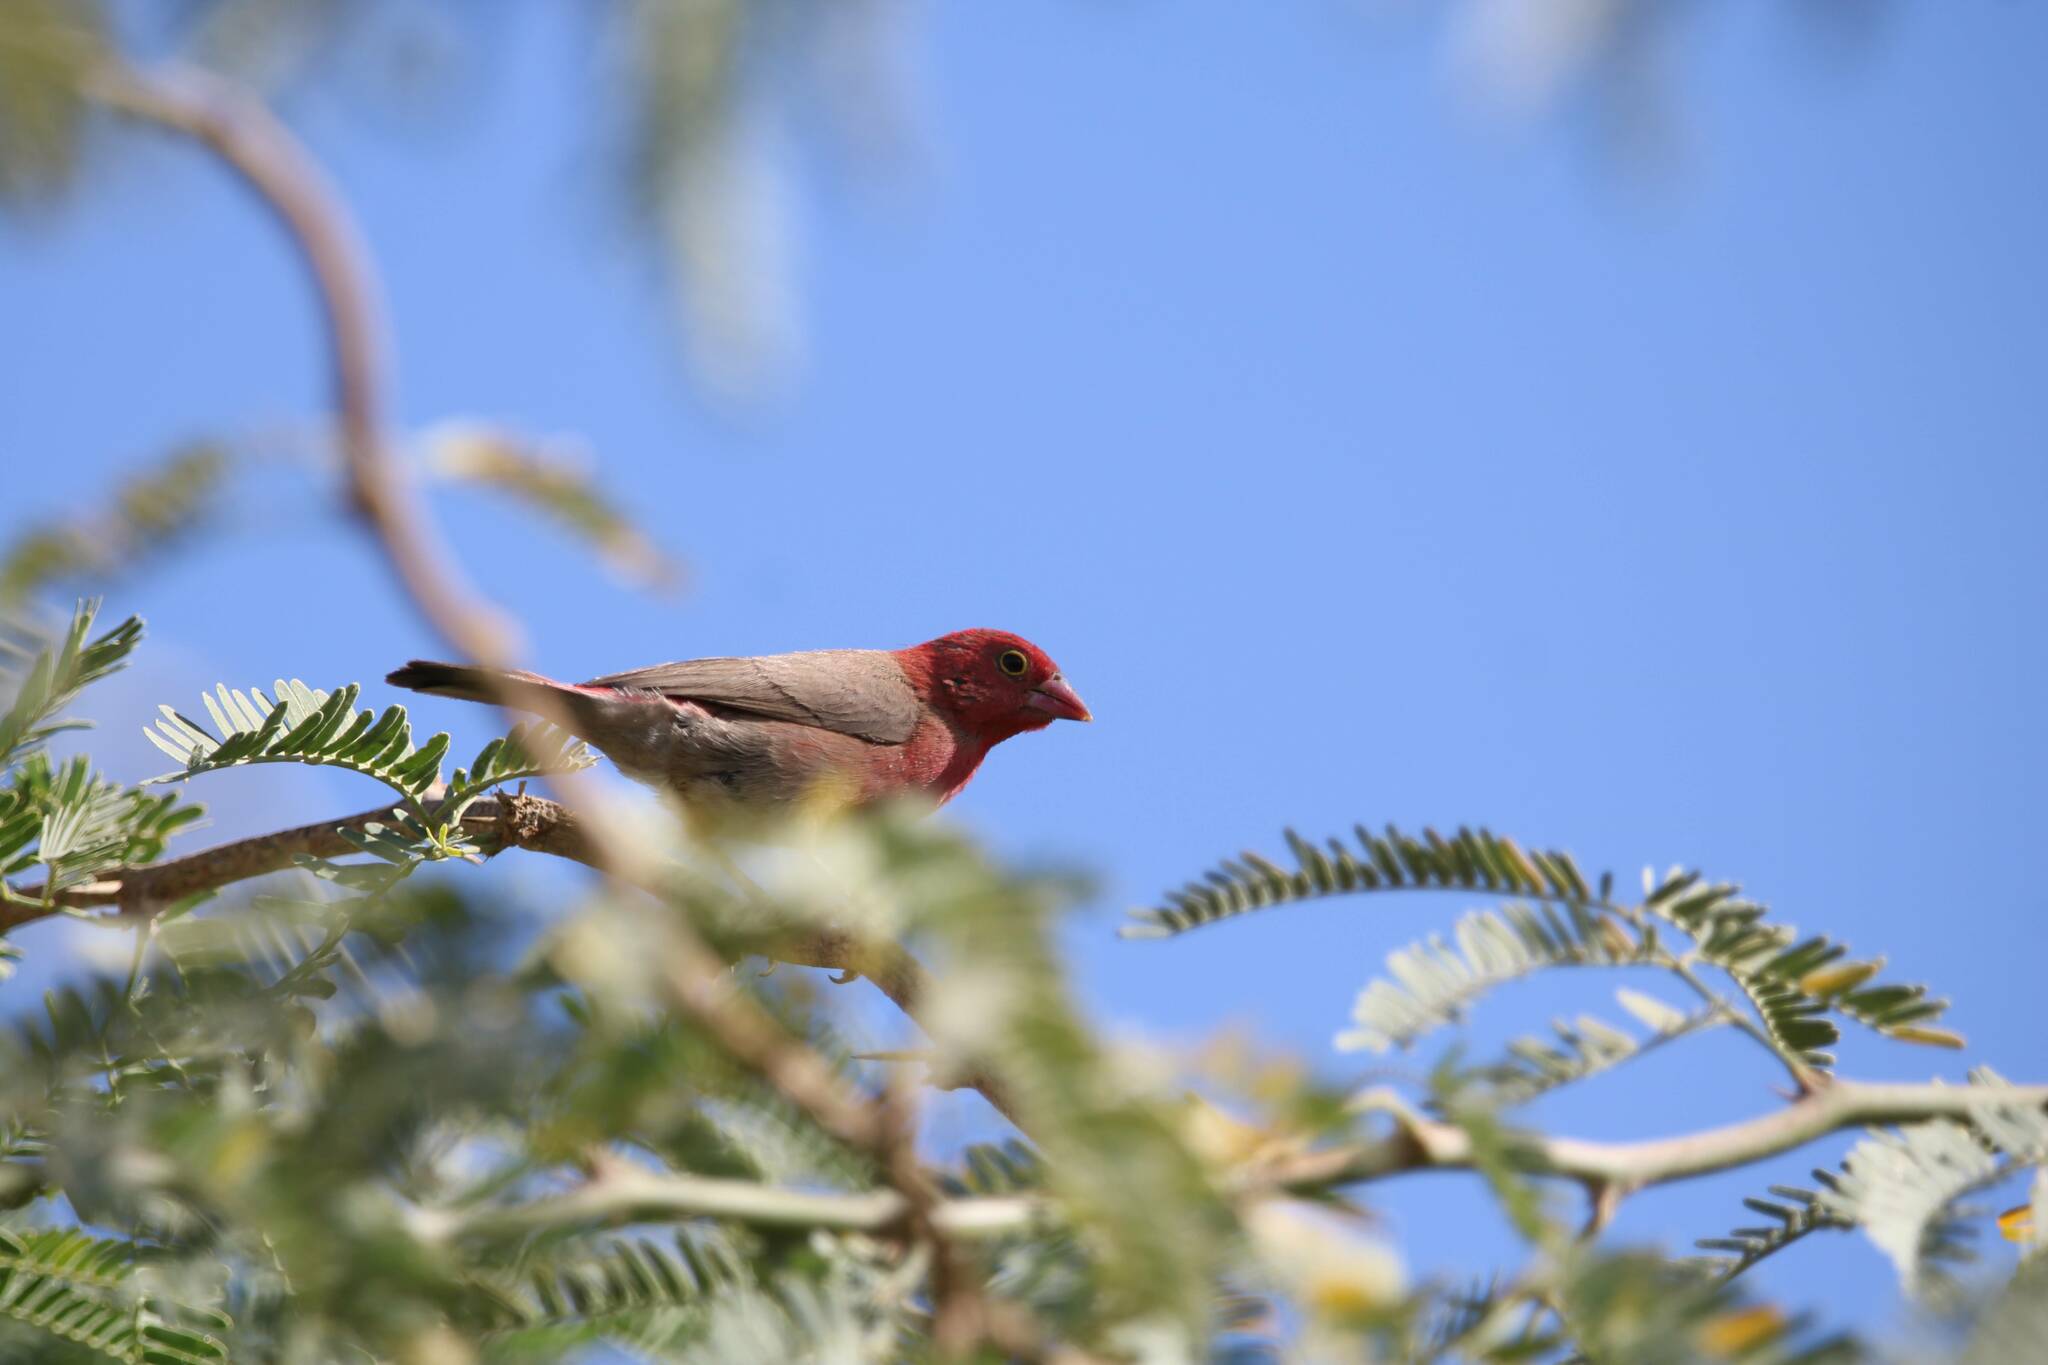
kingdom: Animalia
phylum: Chordata
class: Aves
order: Passeriformes
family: Estrildidae
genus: Lagonosticta
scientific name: Lagonosticta senegala
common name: Red-billed firefinch
